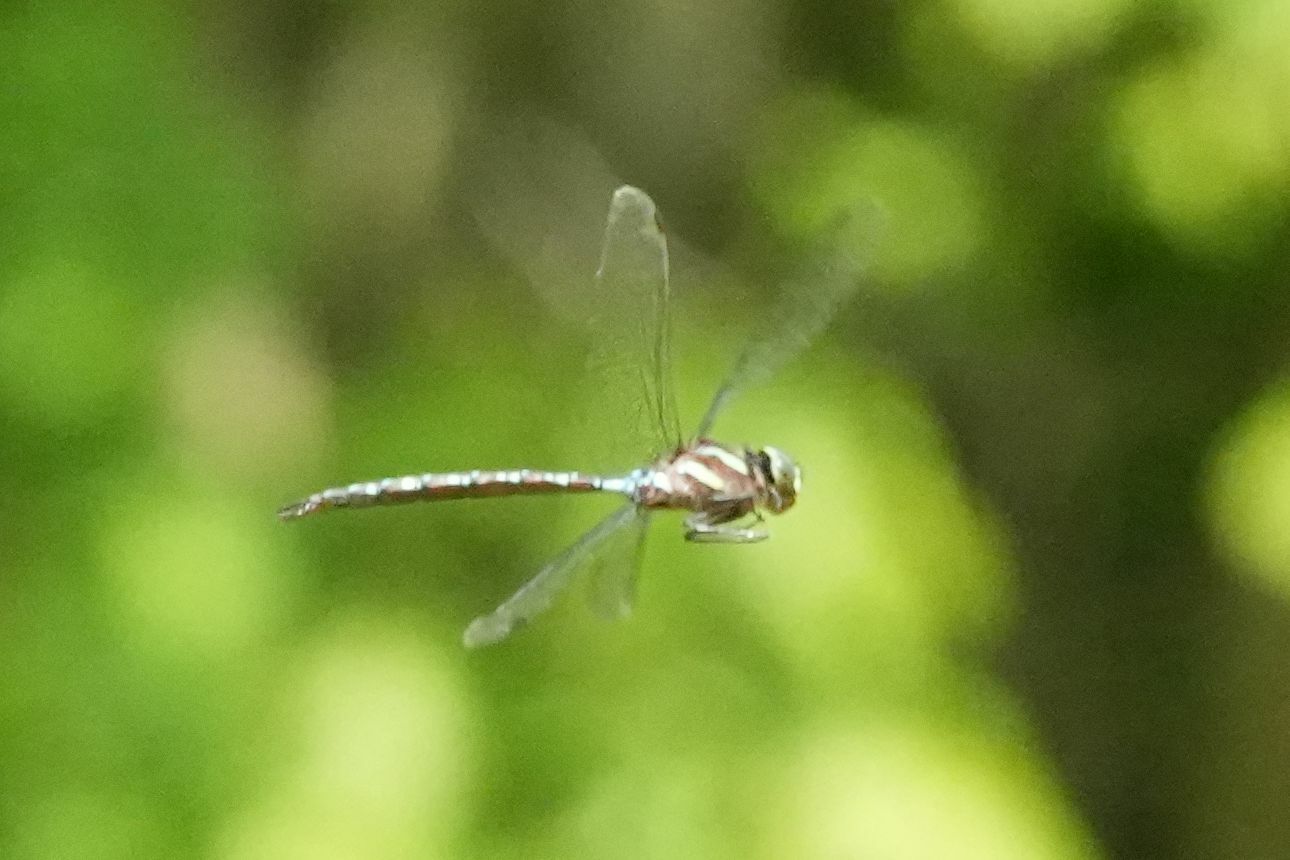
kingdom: Animalia
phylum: Arthropoda
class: Insecta
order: Odonata
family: Aeshnidae
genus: Aeshna
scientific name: Aeshna tuberculifera
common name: Aeschne à tubercules
